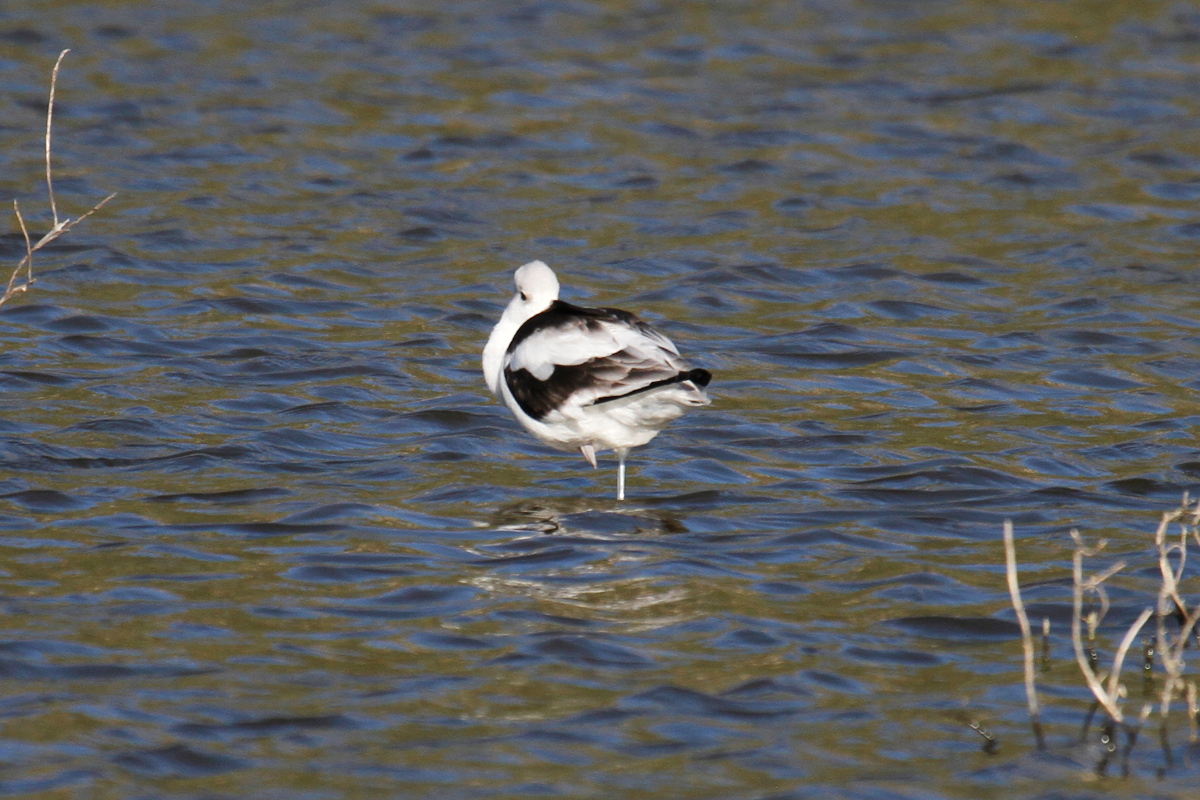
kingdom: Animalia
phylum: Chordata
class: Aves
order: Charadriiformes
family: Recurvirostridae
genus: Recurvirostra
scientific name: Recurvirostra americana
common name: American avocet
